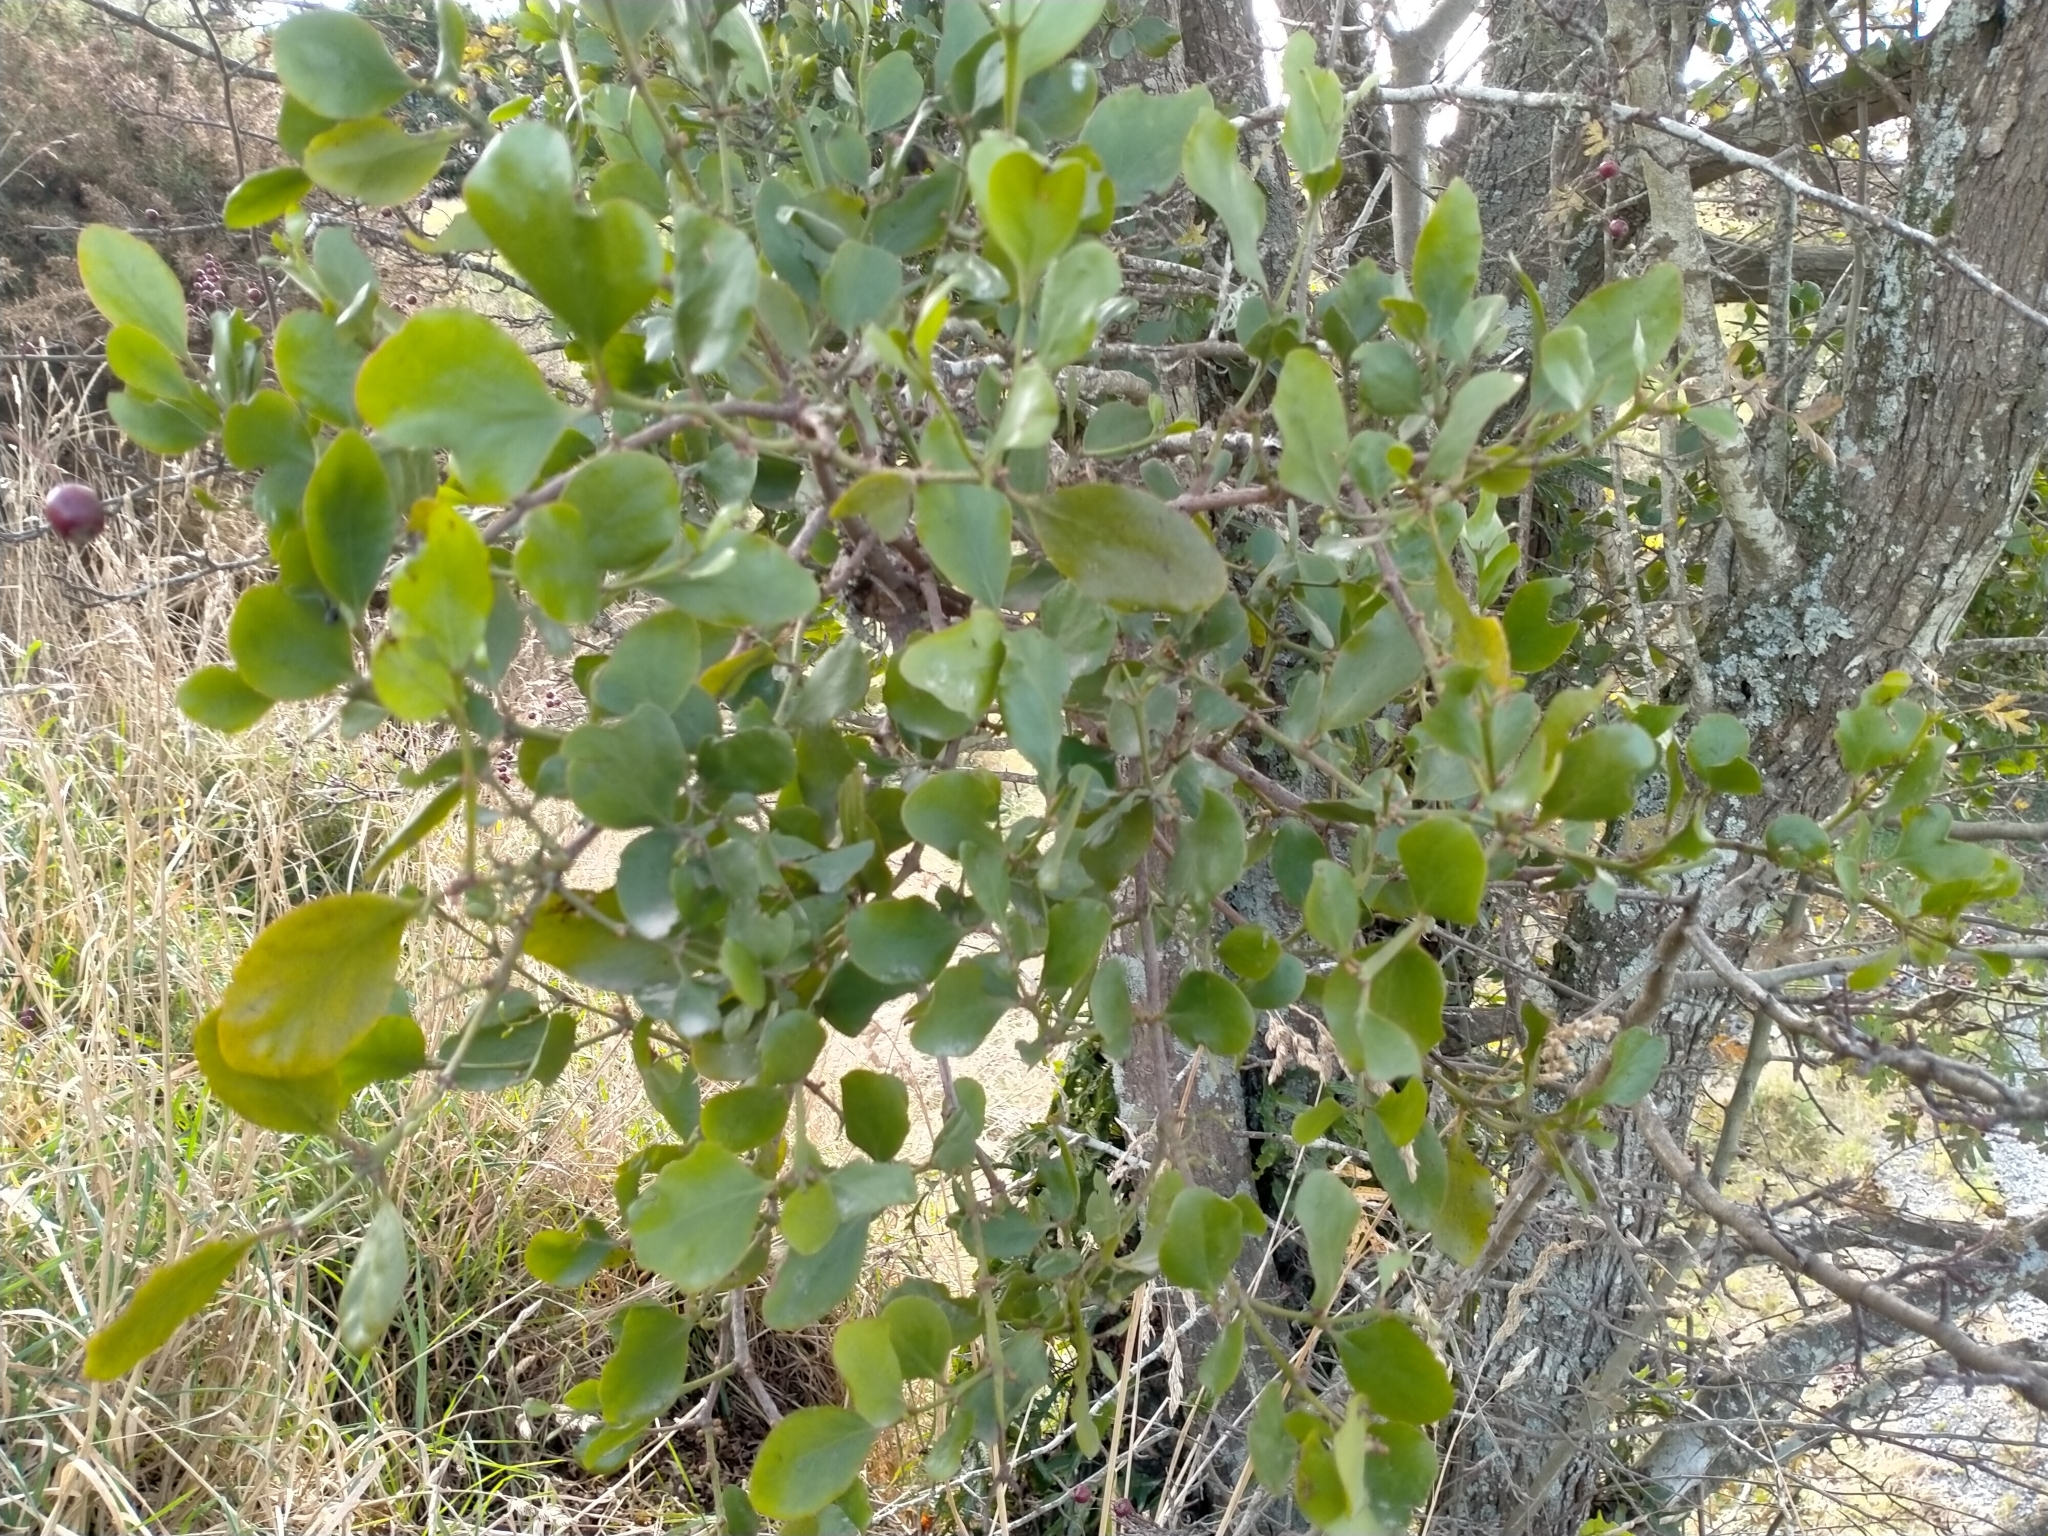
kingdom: Plantae
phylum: Tracheophyta
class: Magnoliopsida
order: Santalales
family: Loranthaceae
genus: Ileostylus
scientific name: Ileostylus micranthus
